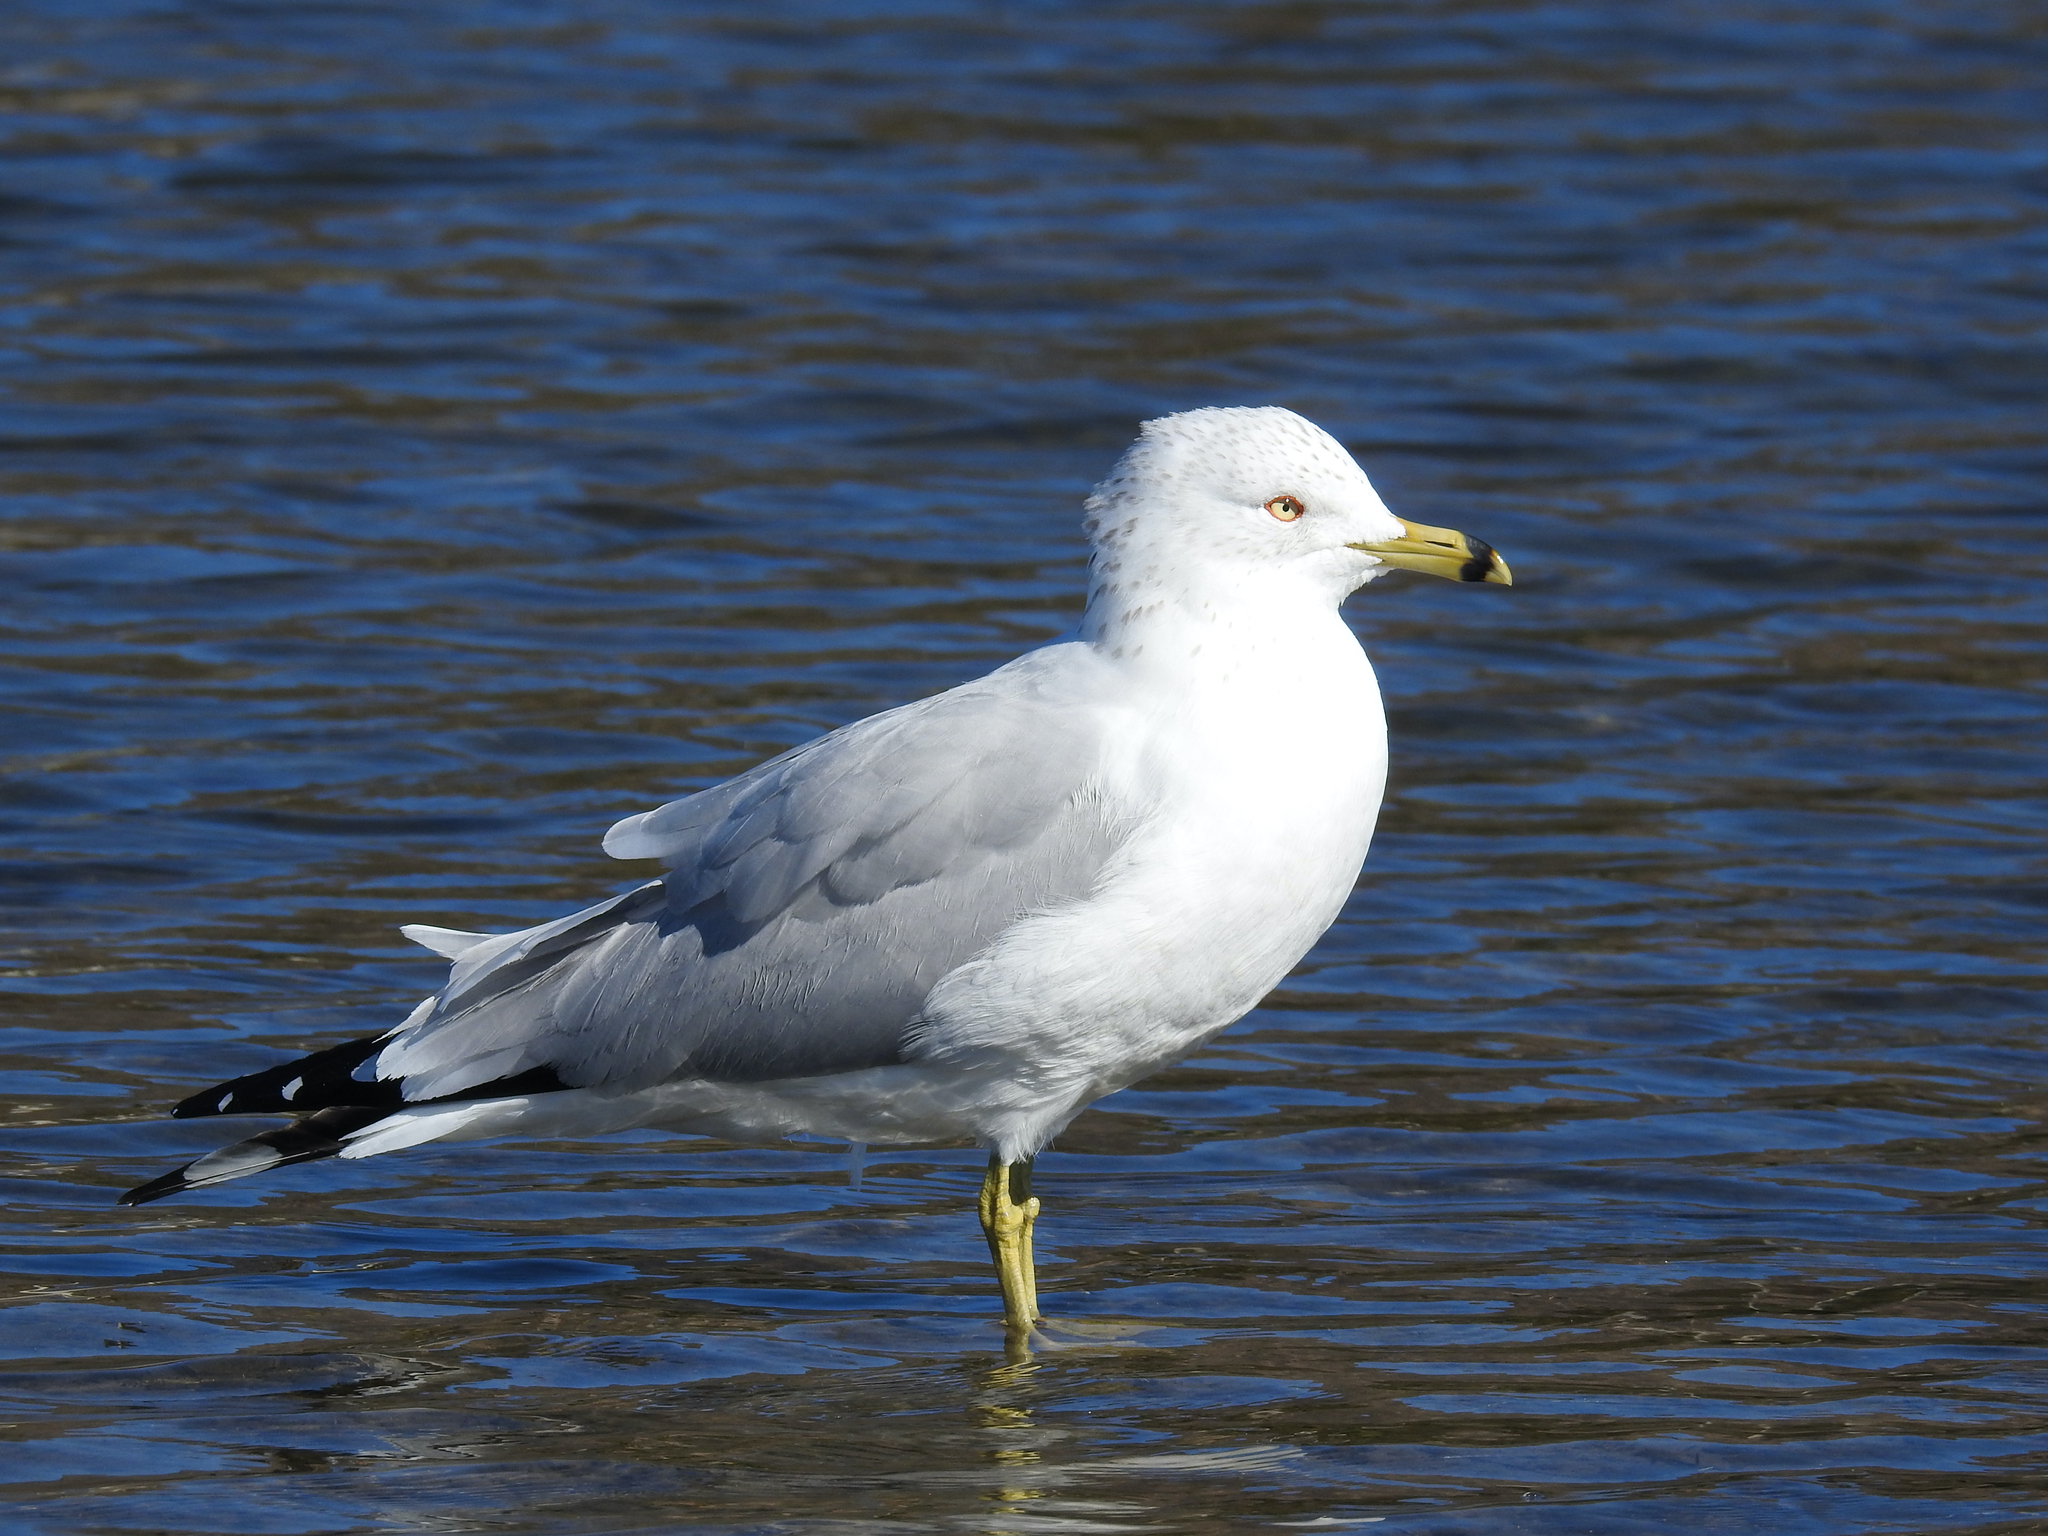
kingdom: Animalia
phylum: Chordata
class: Aves
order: Charadriiformes
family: Laridae
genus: Larus
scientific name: Larus delawarensis
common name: Ring-billed gull
